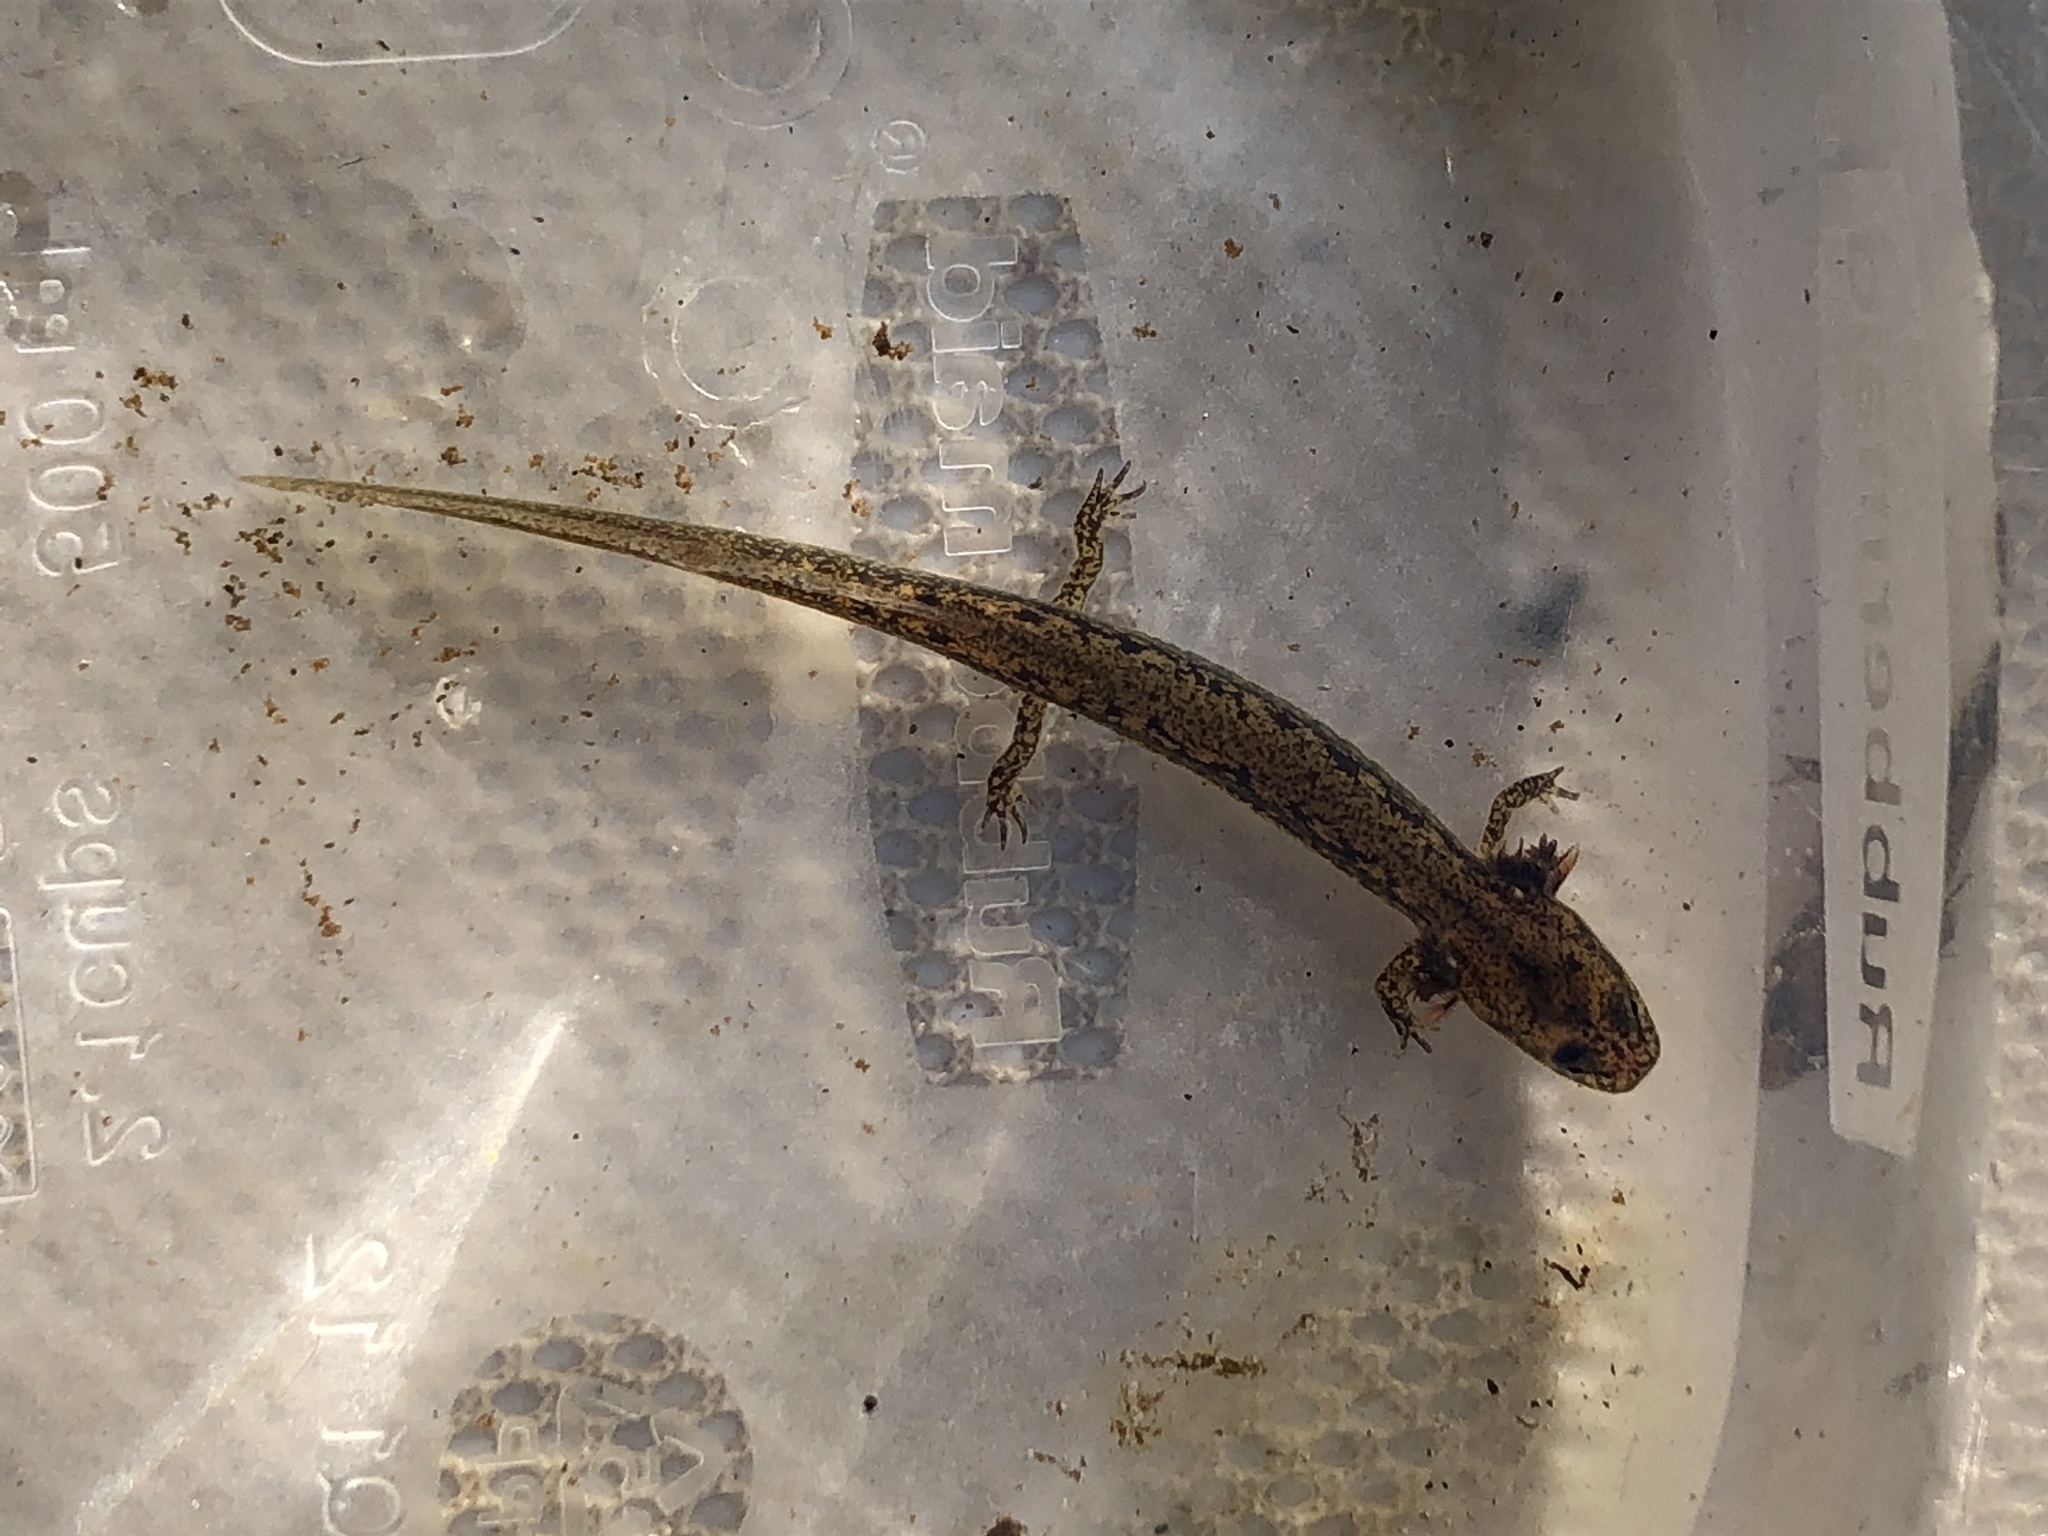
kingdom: Animalia
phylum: Chordata
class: Amphibia
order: Caudata
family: Plethodontidae
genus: Eurycea
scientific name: Eurycea bislineata
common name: Northern two-lined salamander
